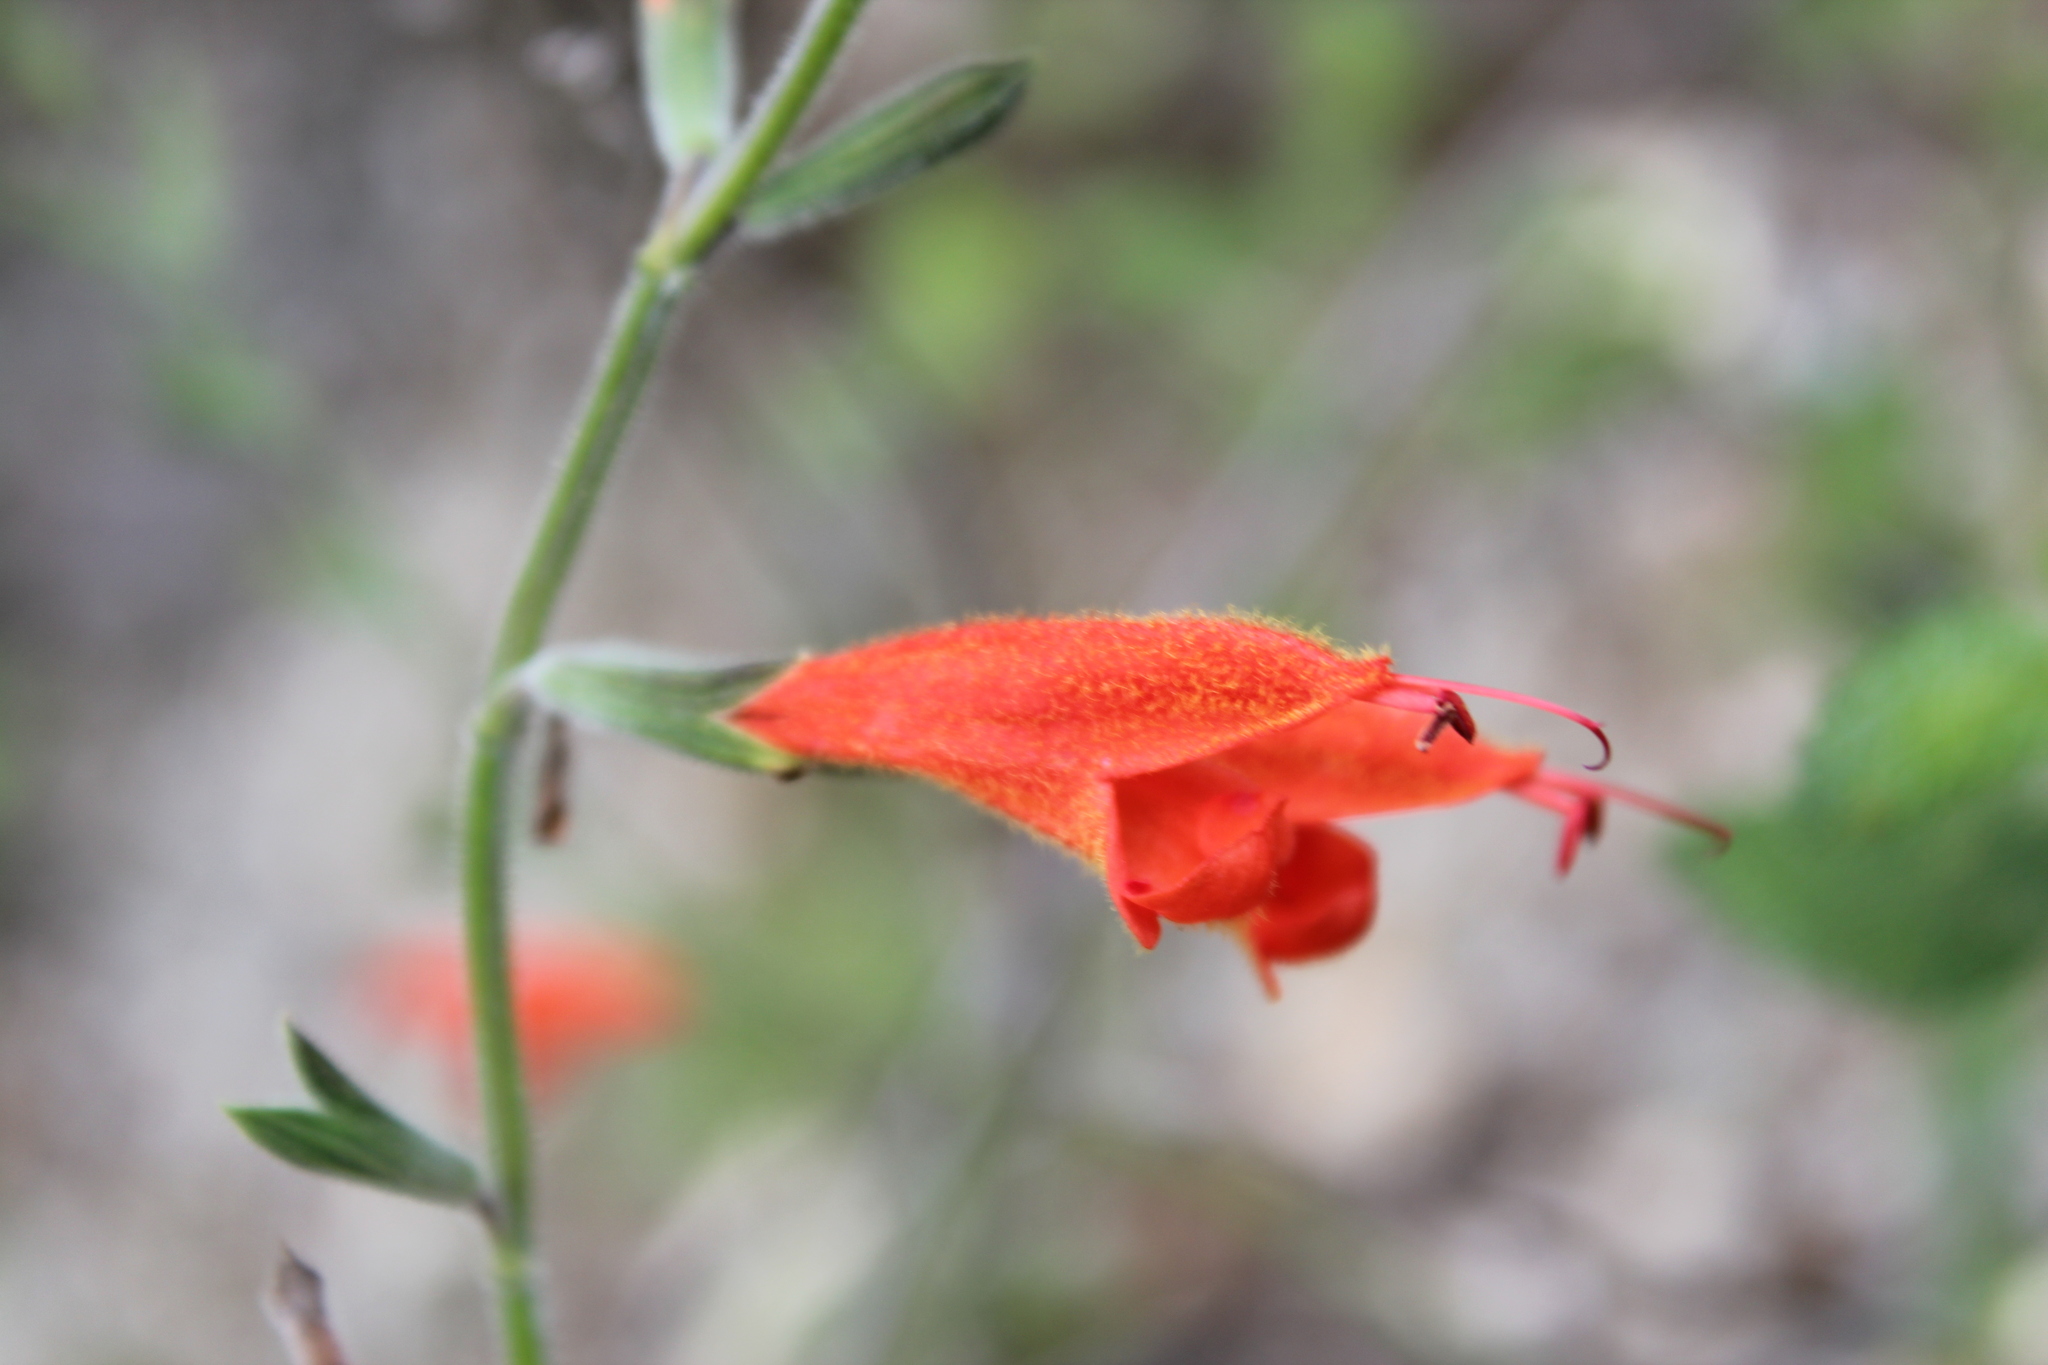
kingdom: Plantae
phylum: Tracheophyta
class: Magnoliopsida
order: Lamiales
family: Lamiaceae
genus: Salvia
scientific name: Salvia oppositiflora
